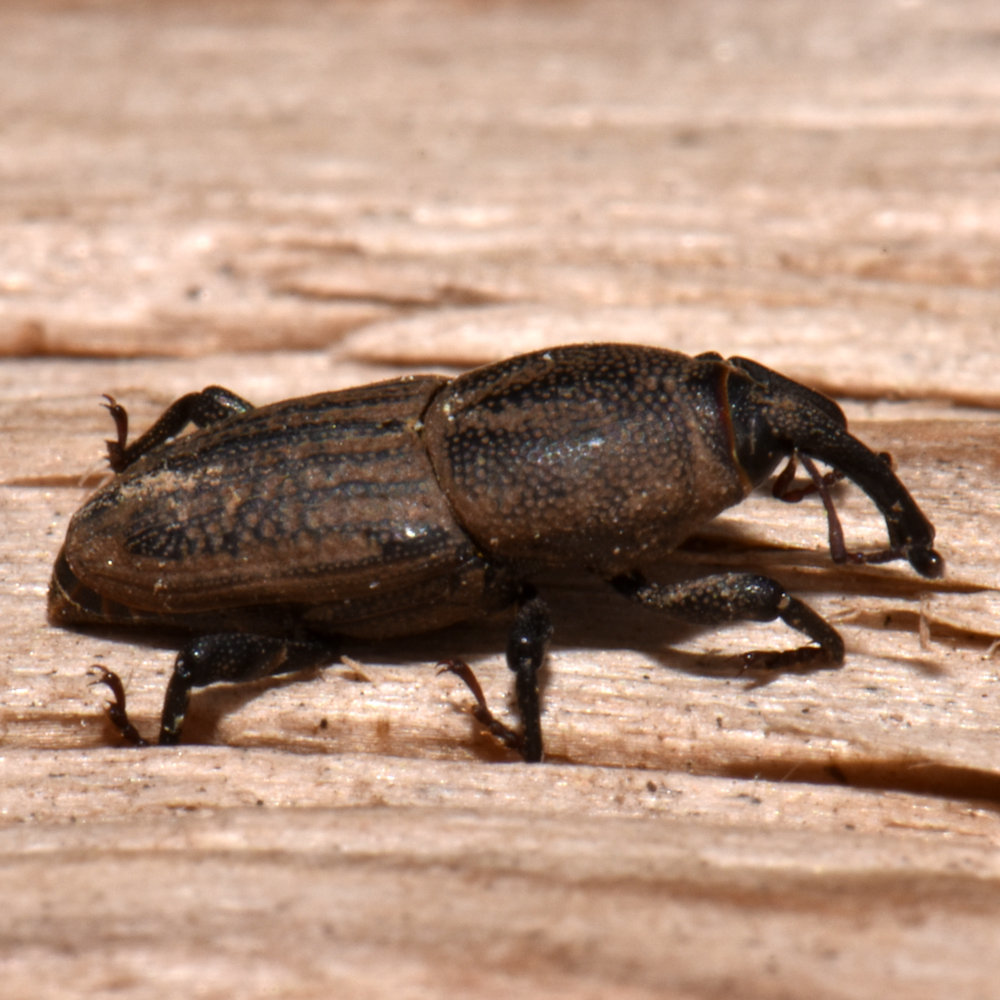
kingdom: Animalia
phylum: Arthropoda
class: Insecta
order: Coleoptera
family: Dryophthoridae
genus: Sphenophorus
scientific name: Sphenophorus interstitialis
